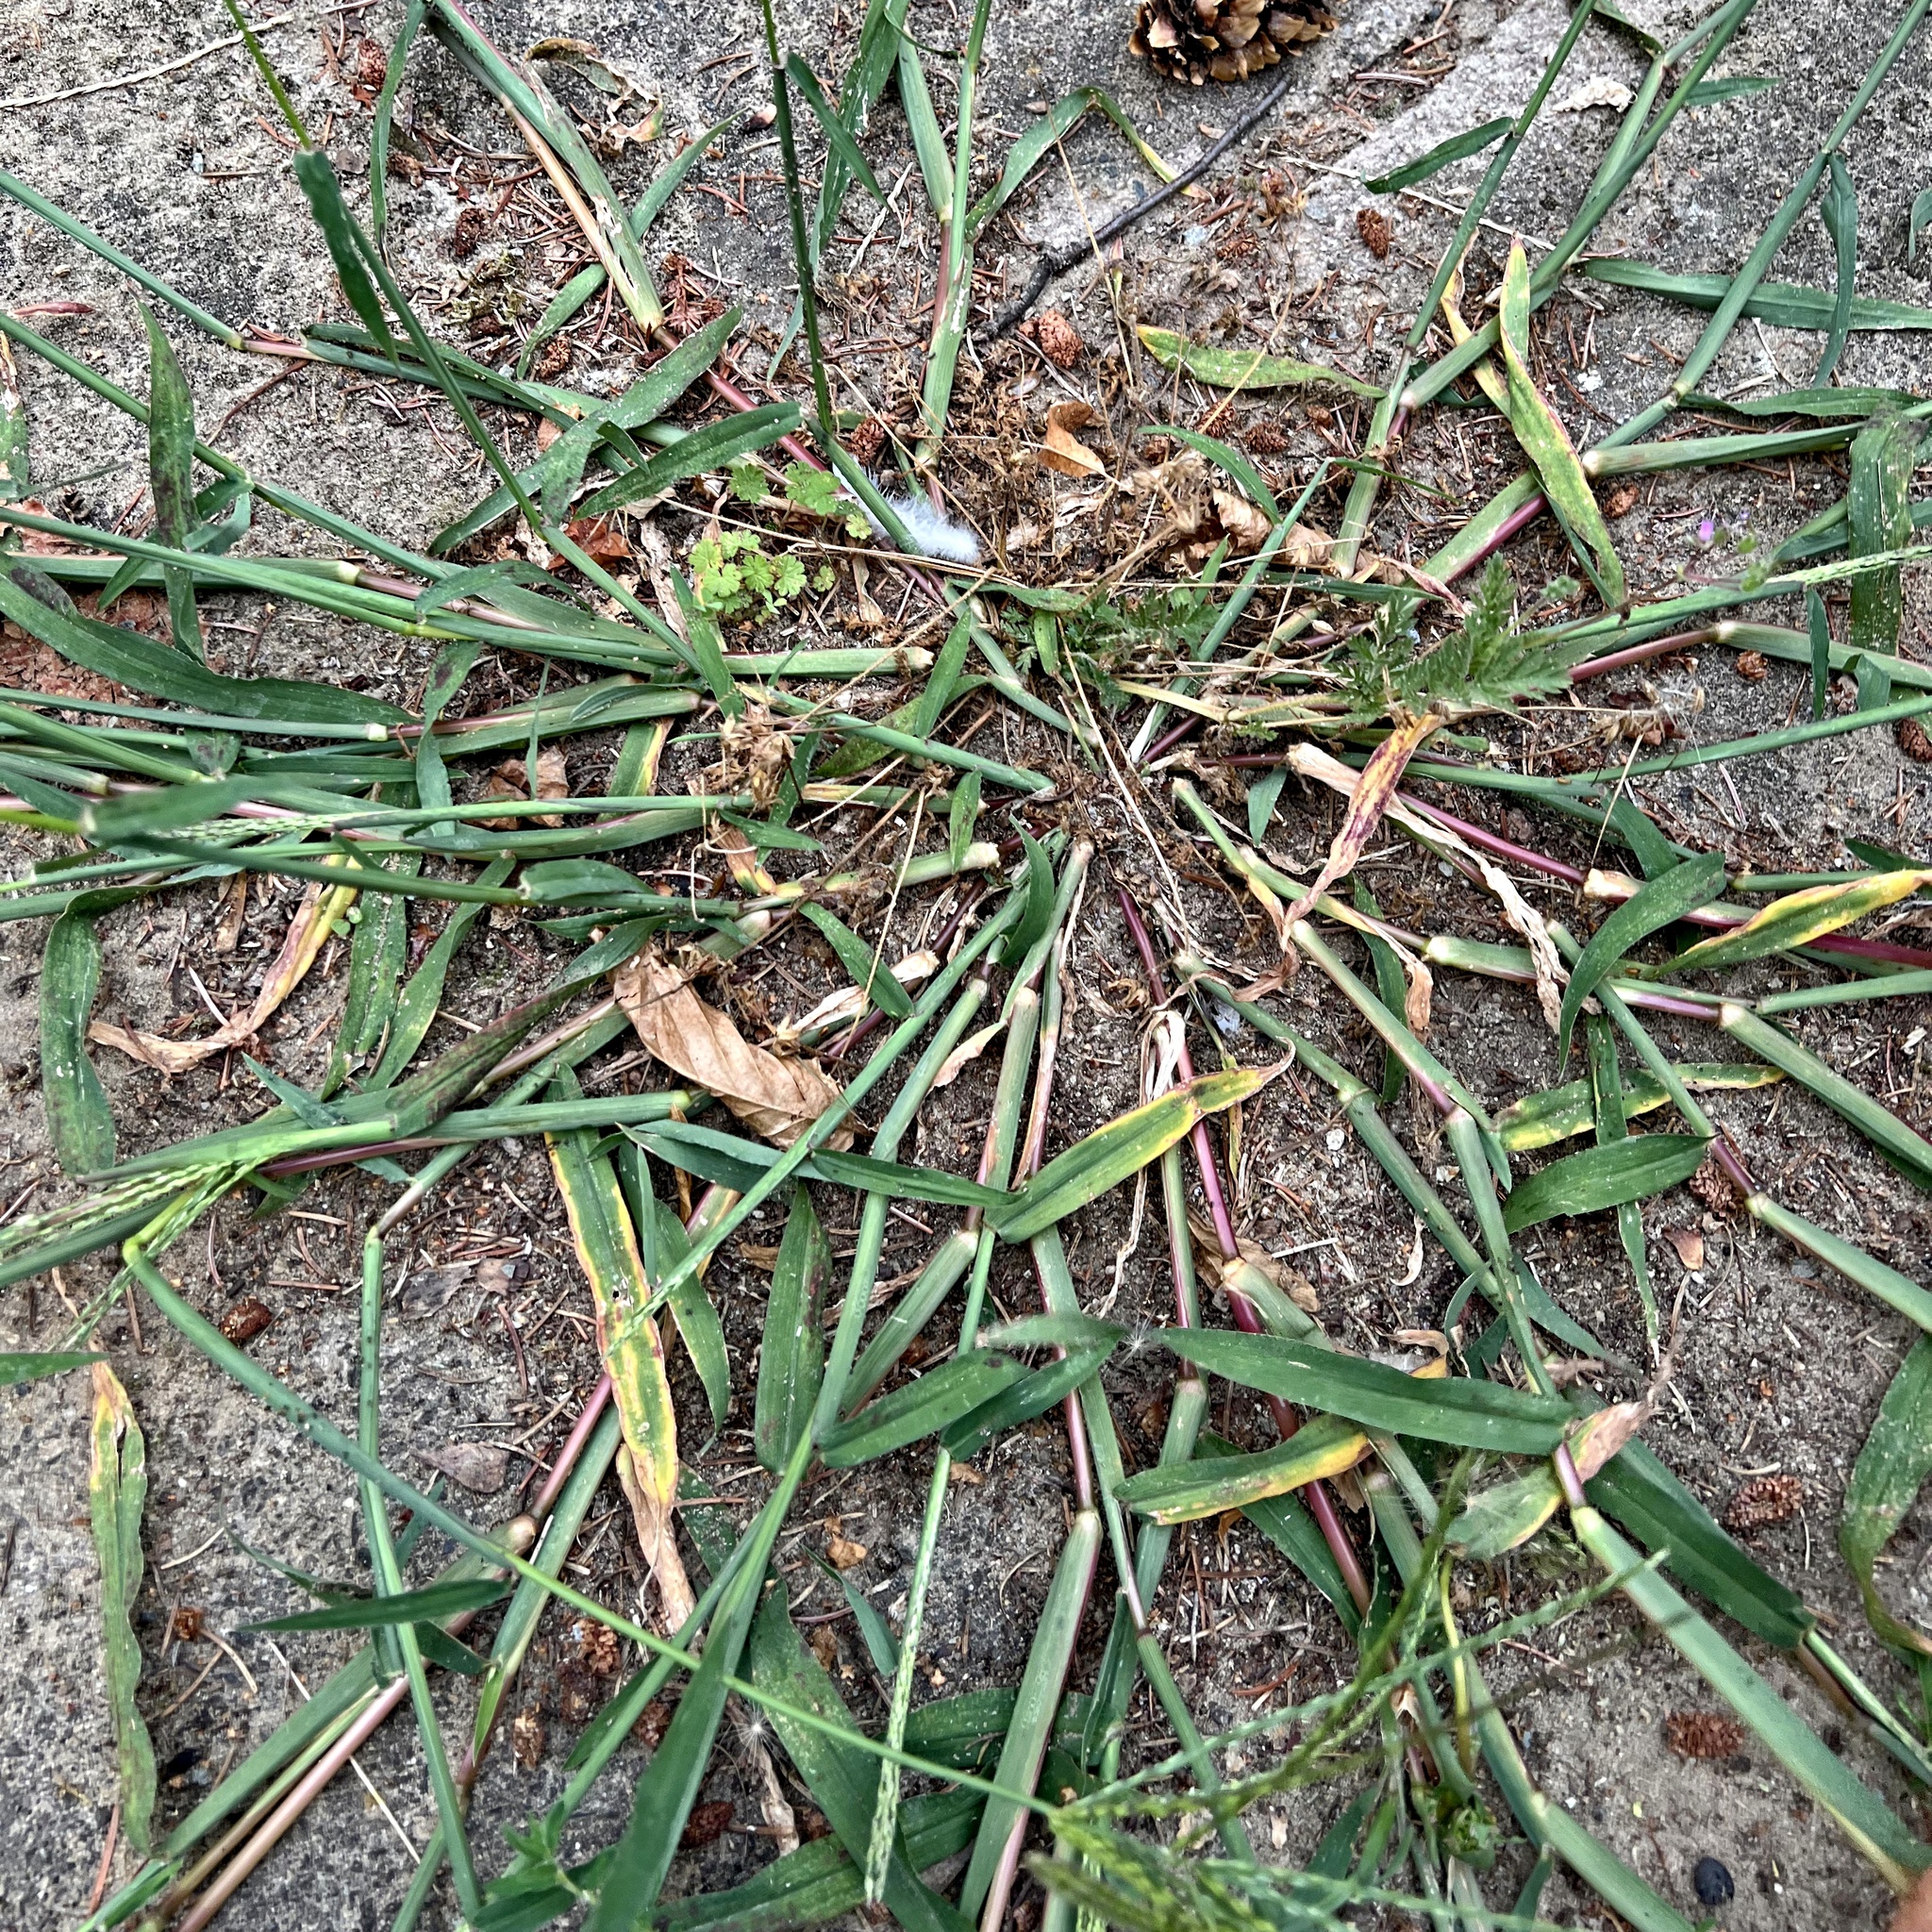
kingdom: Plantae
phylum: Tracheophyta
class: Liliopsida
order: Poales
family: Poaceae
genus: Digitaria
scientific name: Digitaria sanguinalis
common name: Hairy crabgrass
